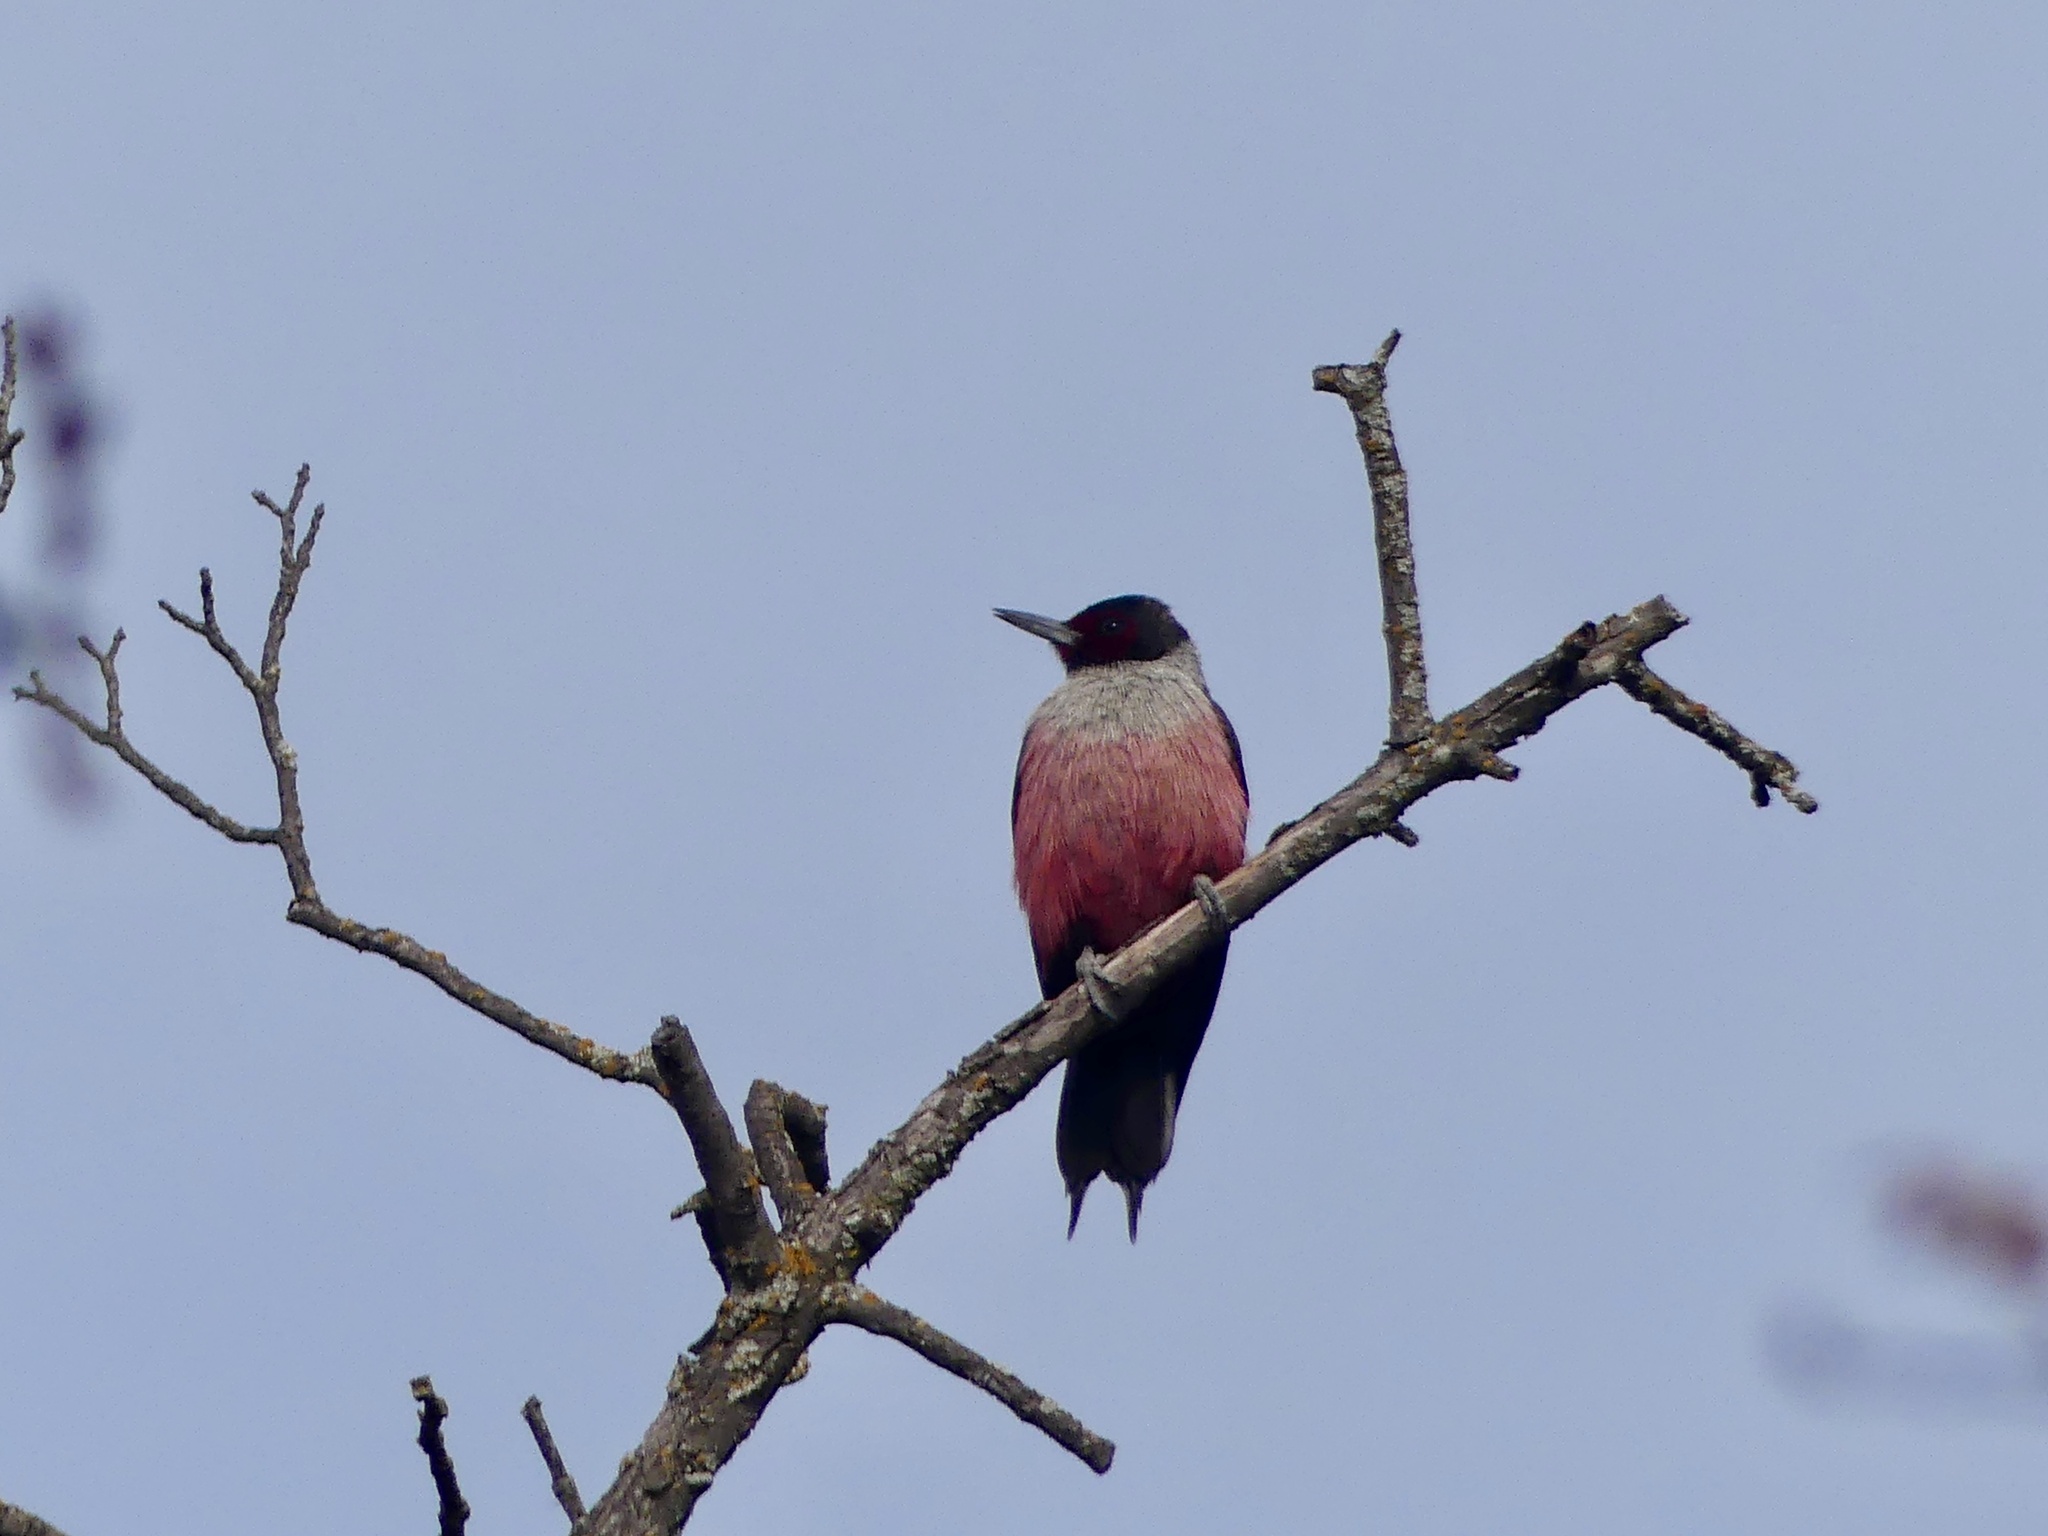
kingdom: Animalia
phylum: Chordata
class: Aves
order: Piciformes
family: Picidae
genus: Melanerpes
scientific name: Melanerpes lewis
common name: Lewis's woodpecker
